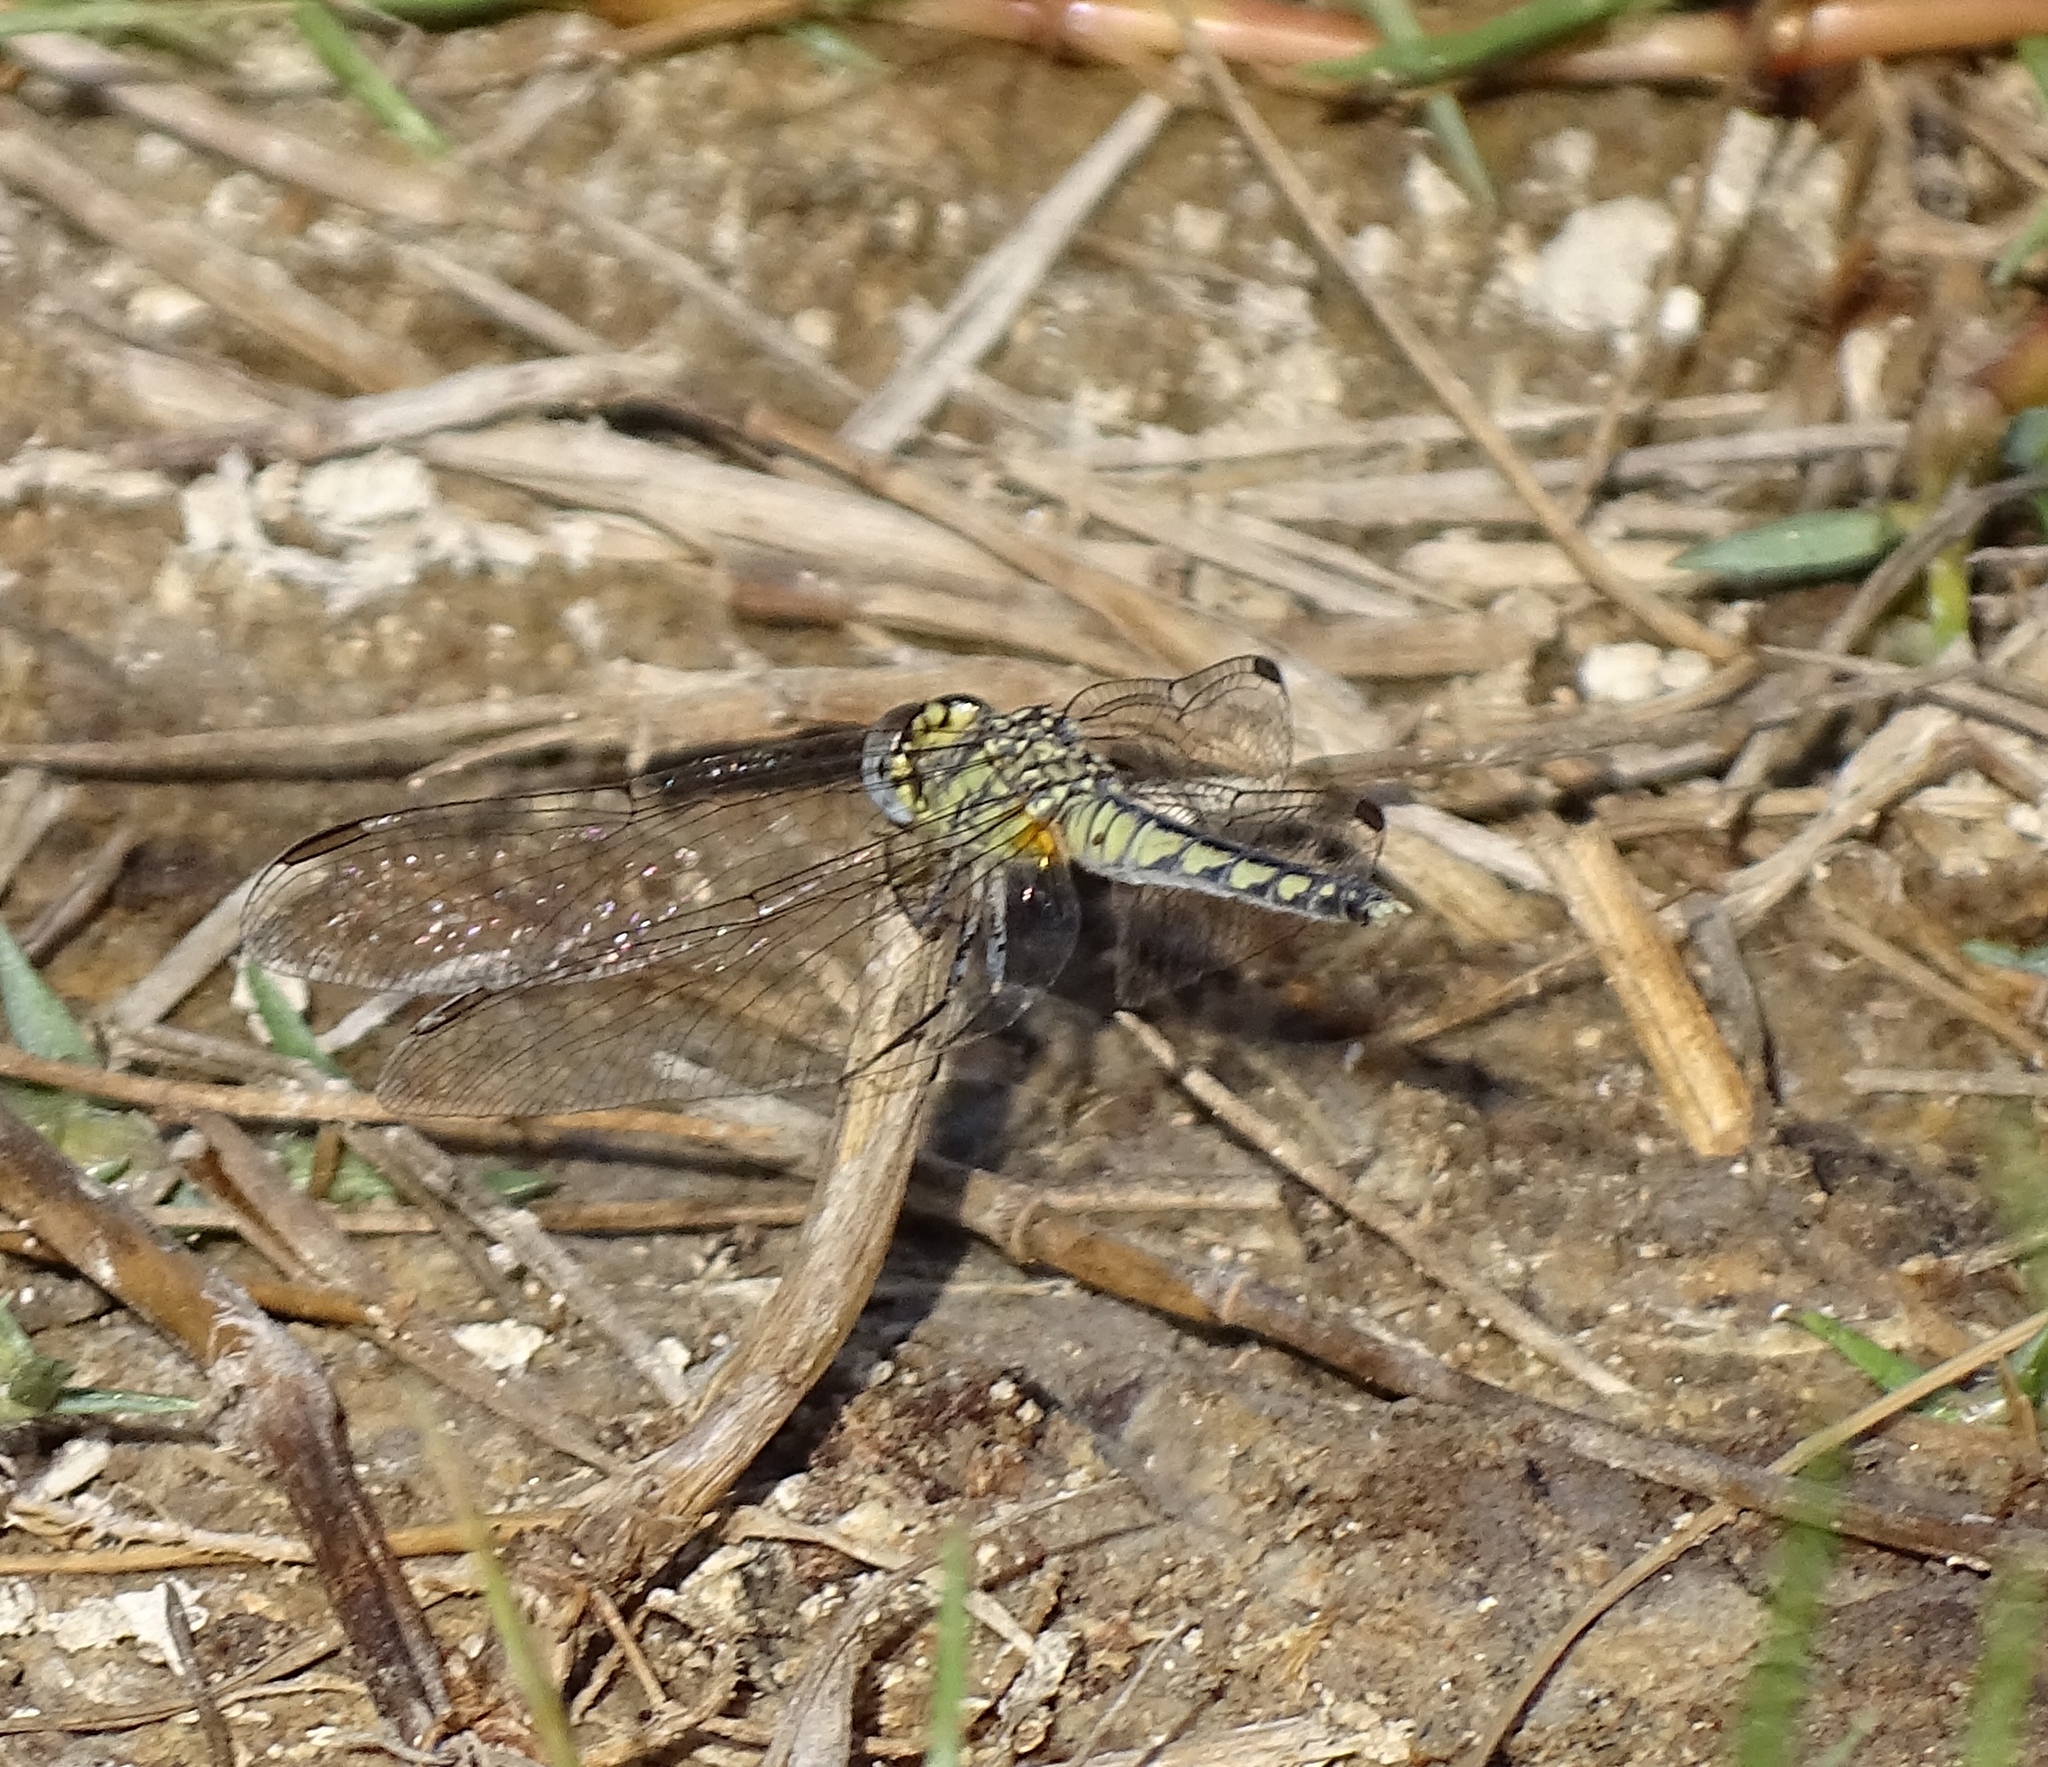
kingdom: Animalia
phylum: Arthropoda
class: Insecta
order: Odonata
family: Libellulidae
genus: Diplacodes
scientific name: Diplacodes lefebvrii
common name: Black percher
